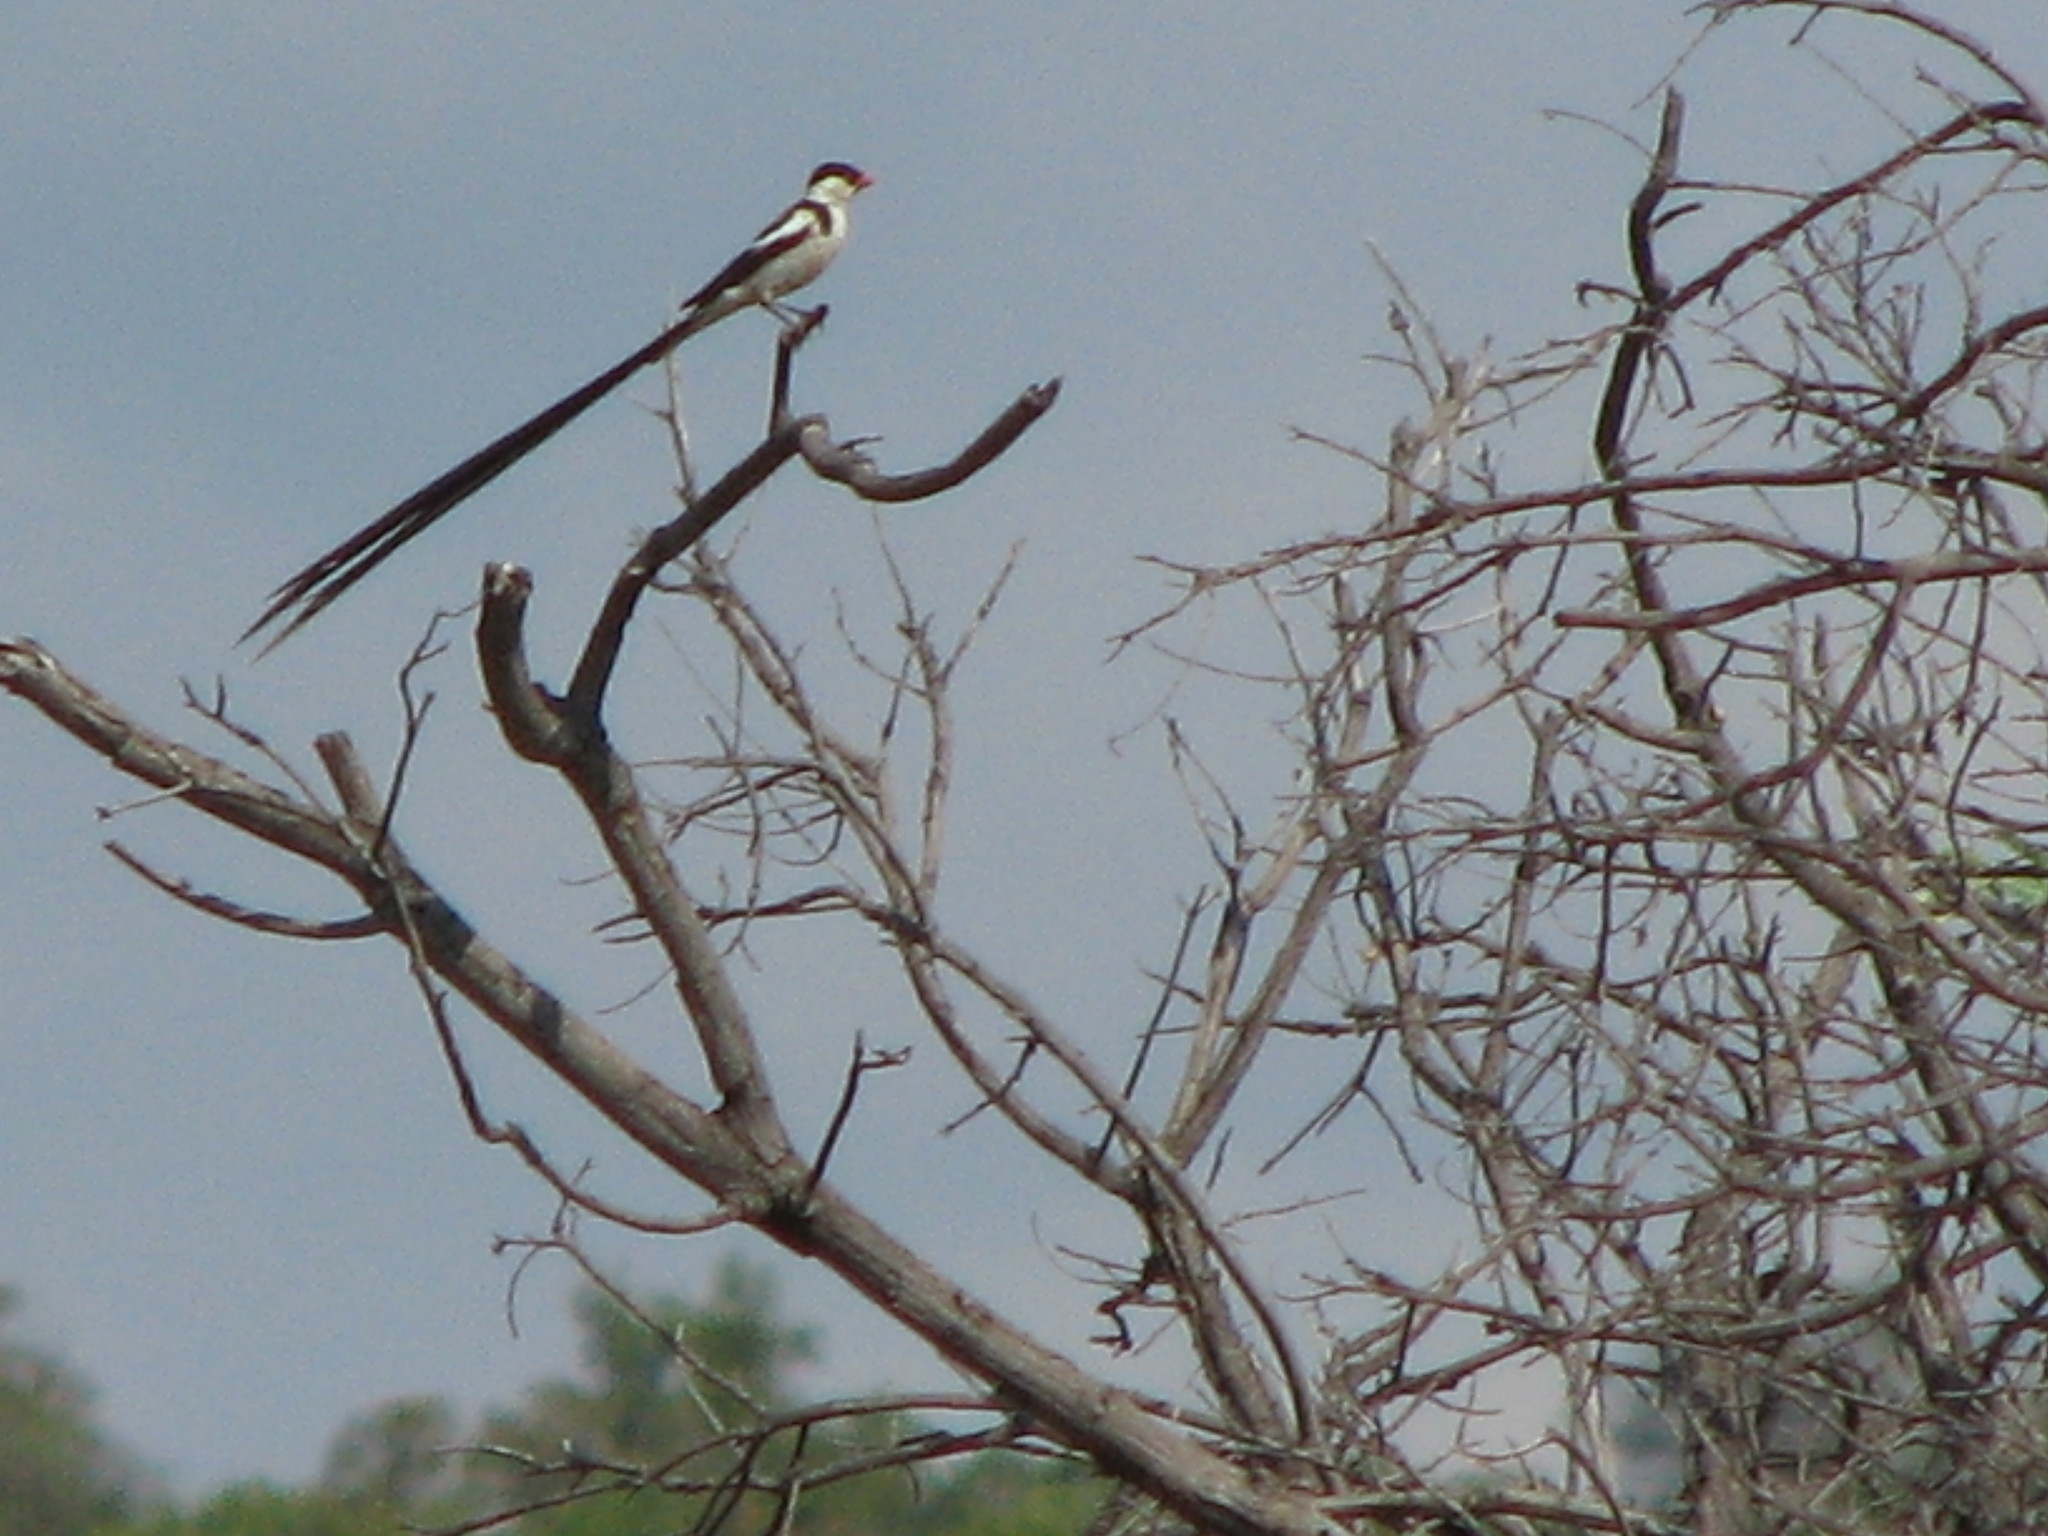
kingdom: Animalia
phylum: Chordata
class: Aves
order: Passeriformes
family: Viduidae
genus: Vidua
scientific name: Vidua macroura
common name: Pin-tailed whydah
